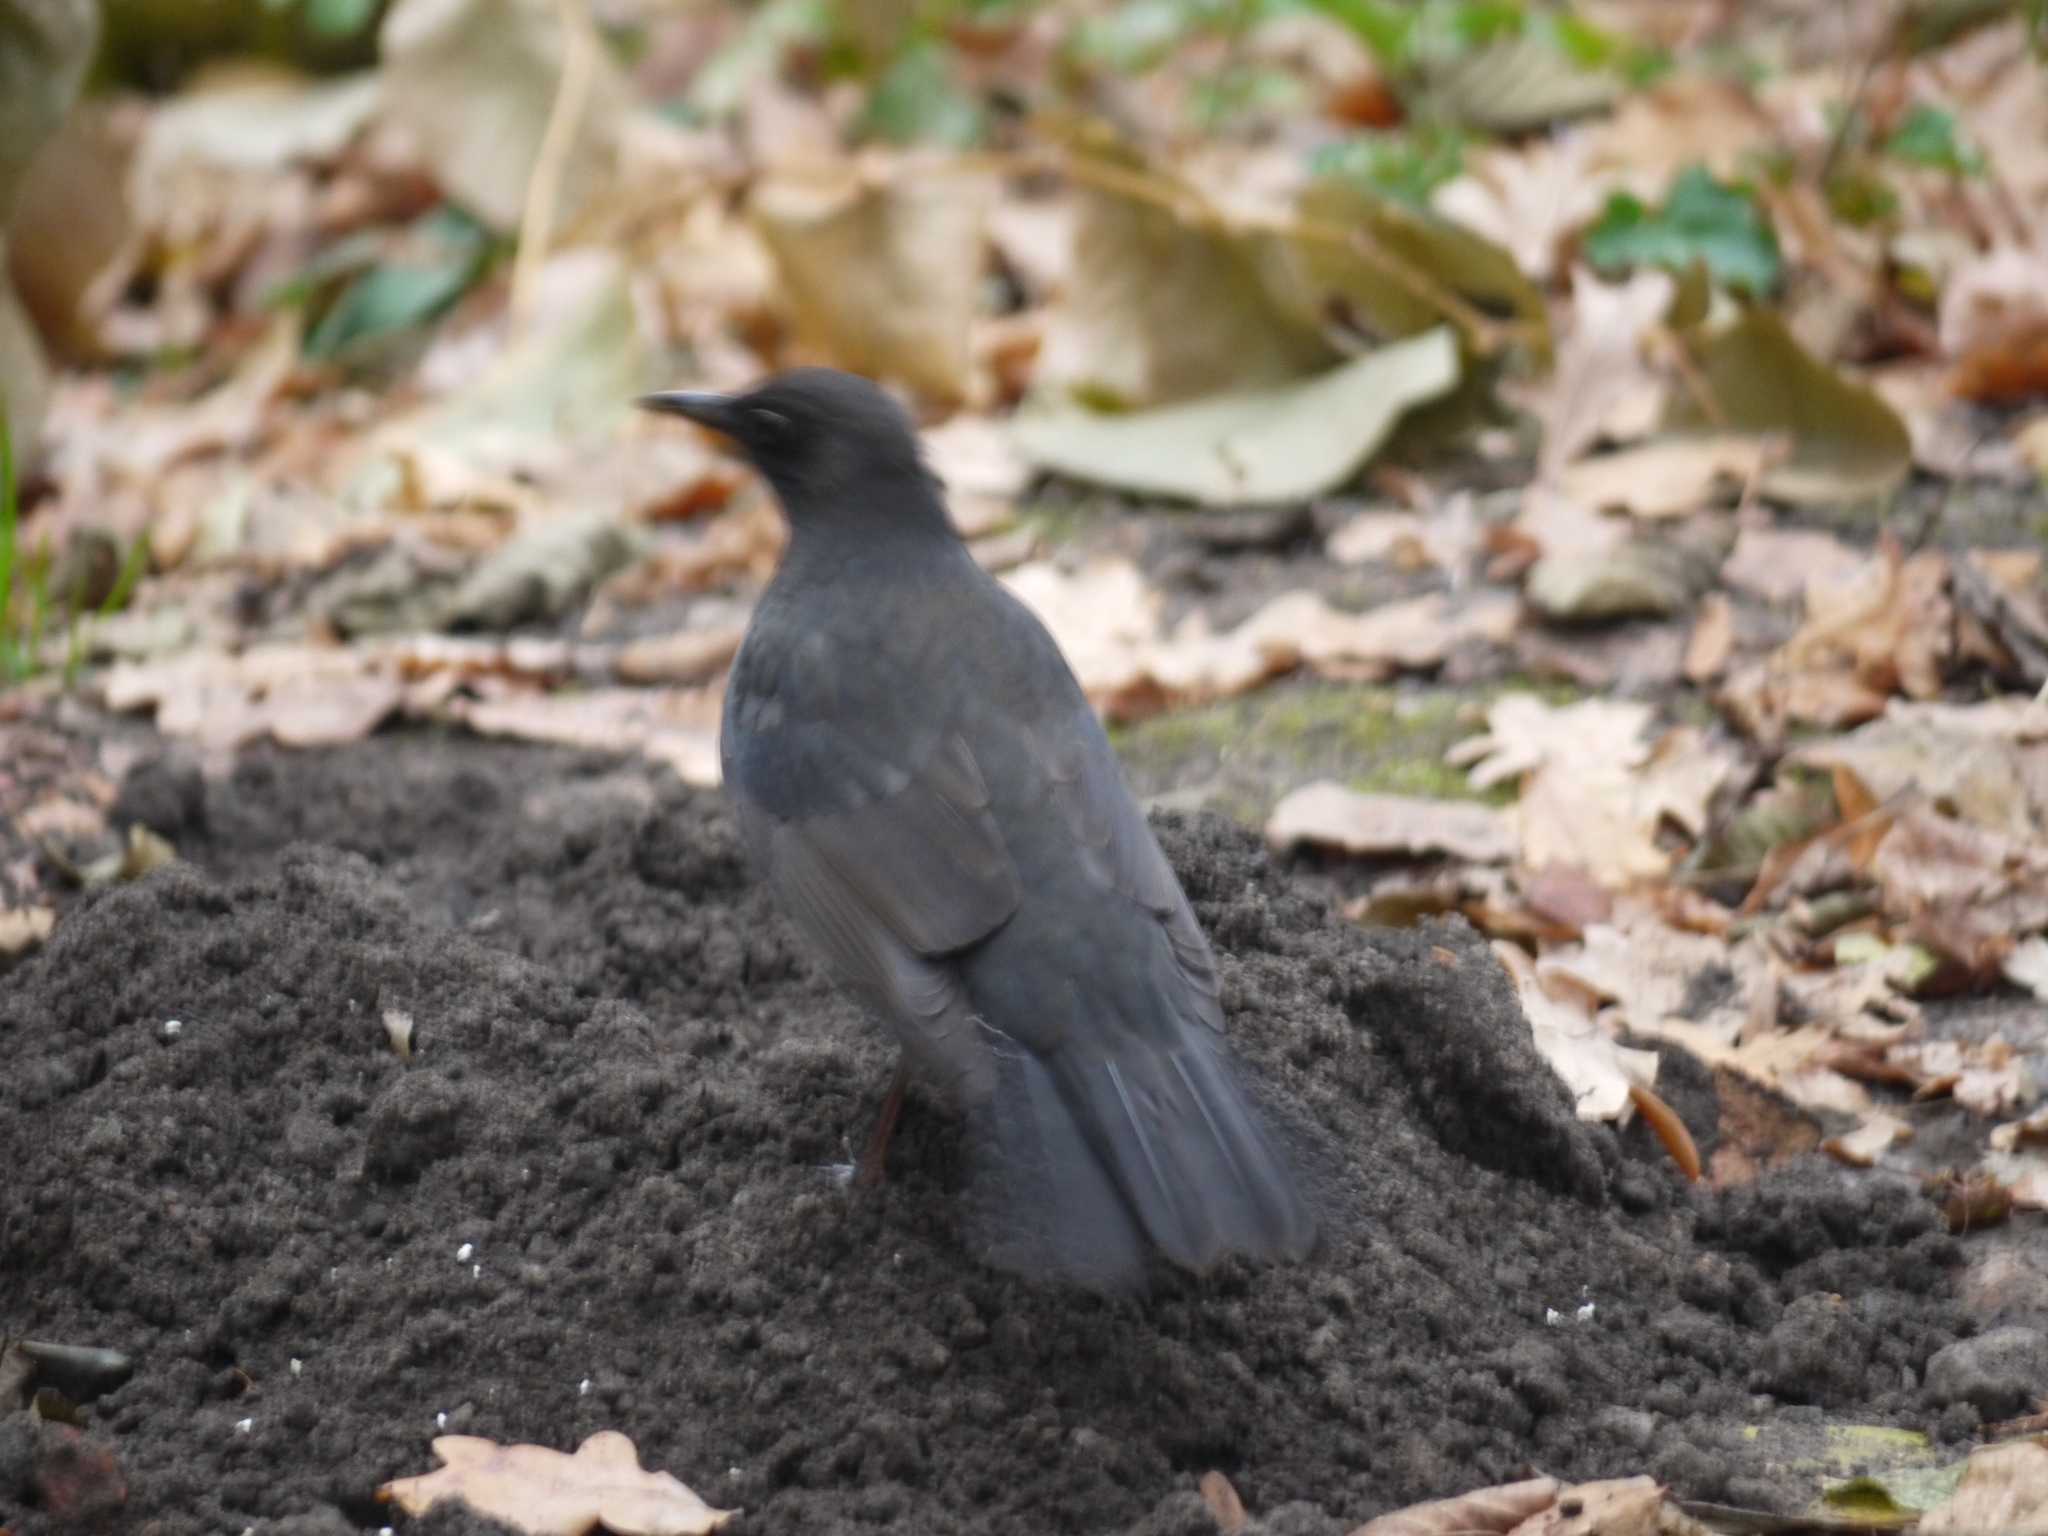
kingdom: Animalia
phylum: Chordata
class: Aves
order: Passeriformes
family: Turdidae
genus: Turdus
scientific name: Turdus merula
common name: Common blackbird
